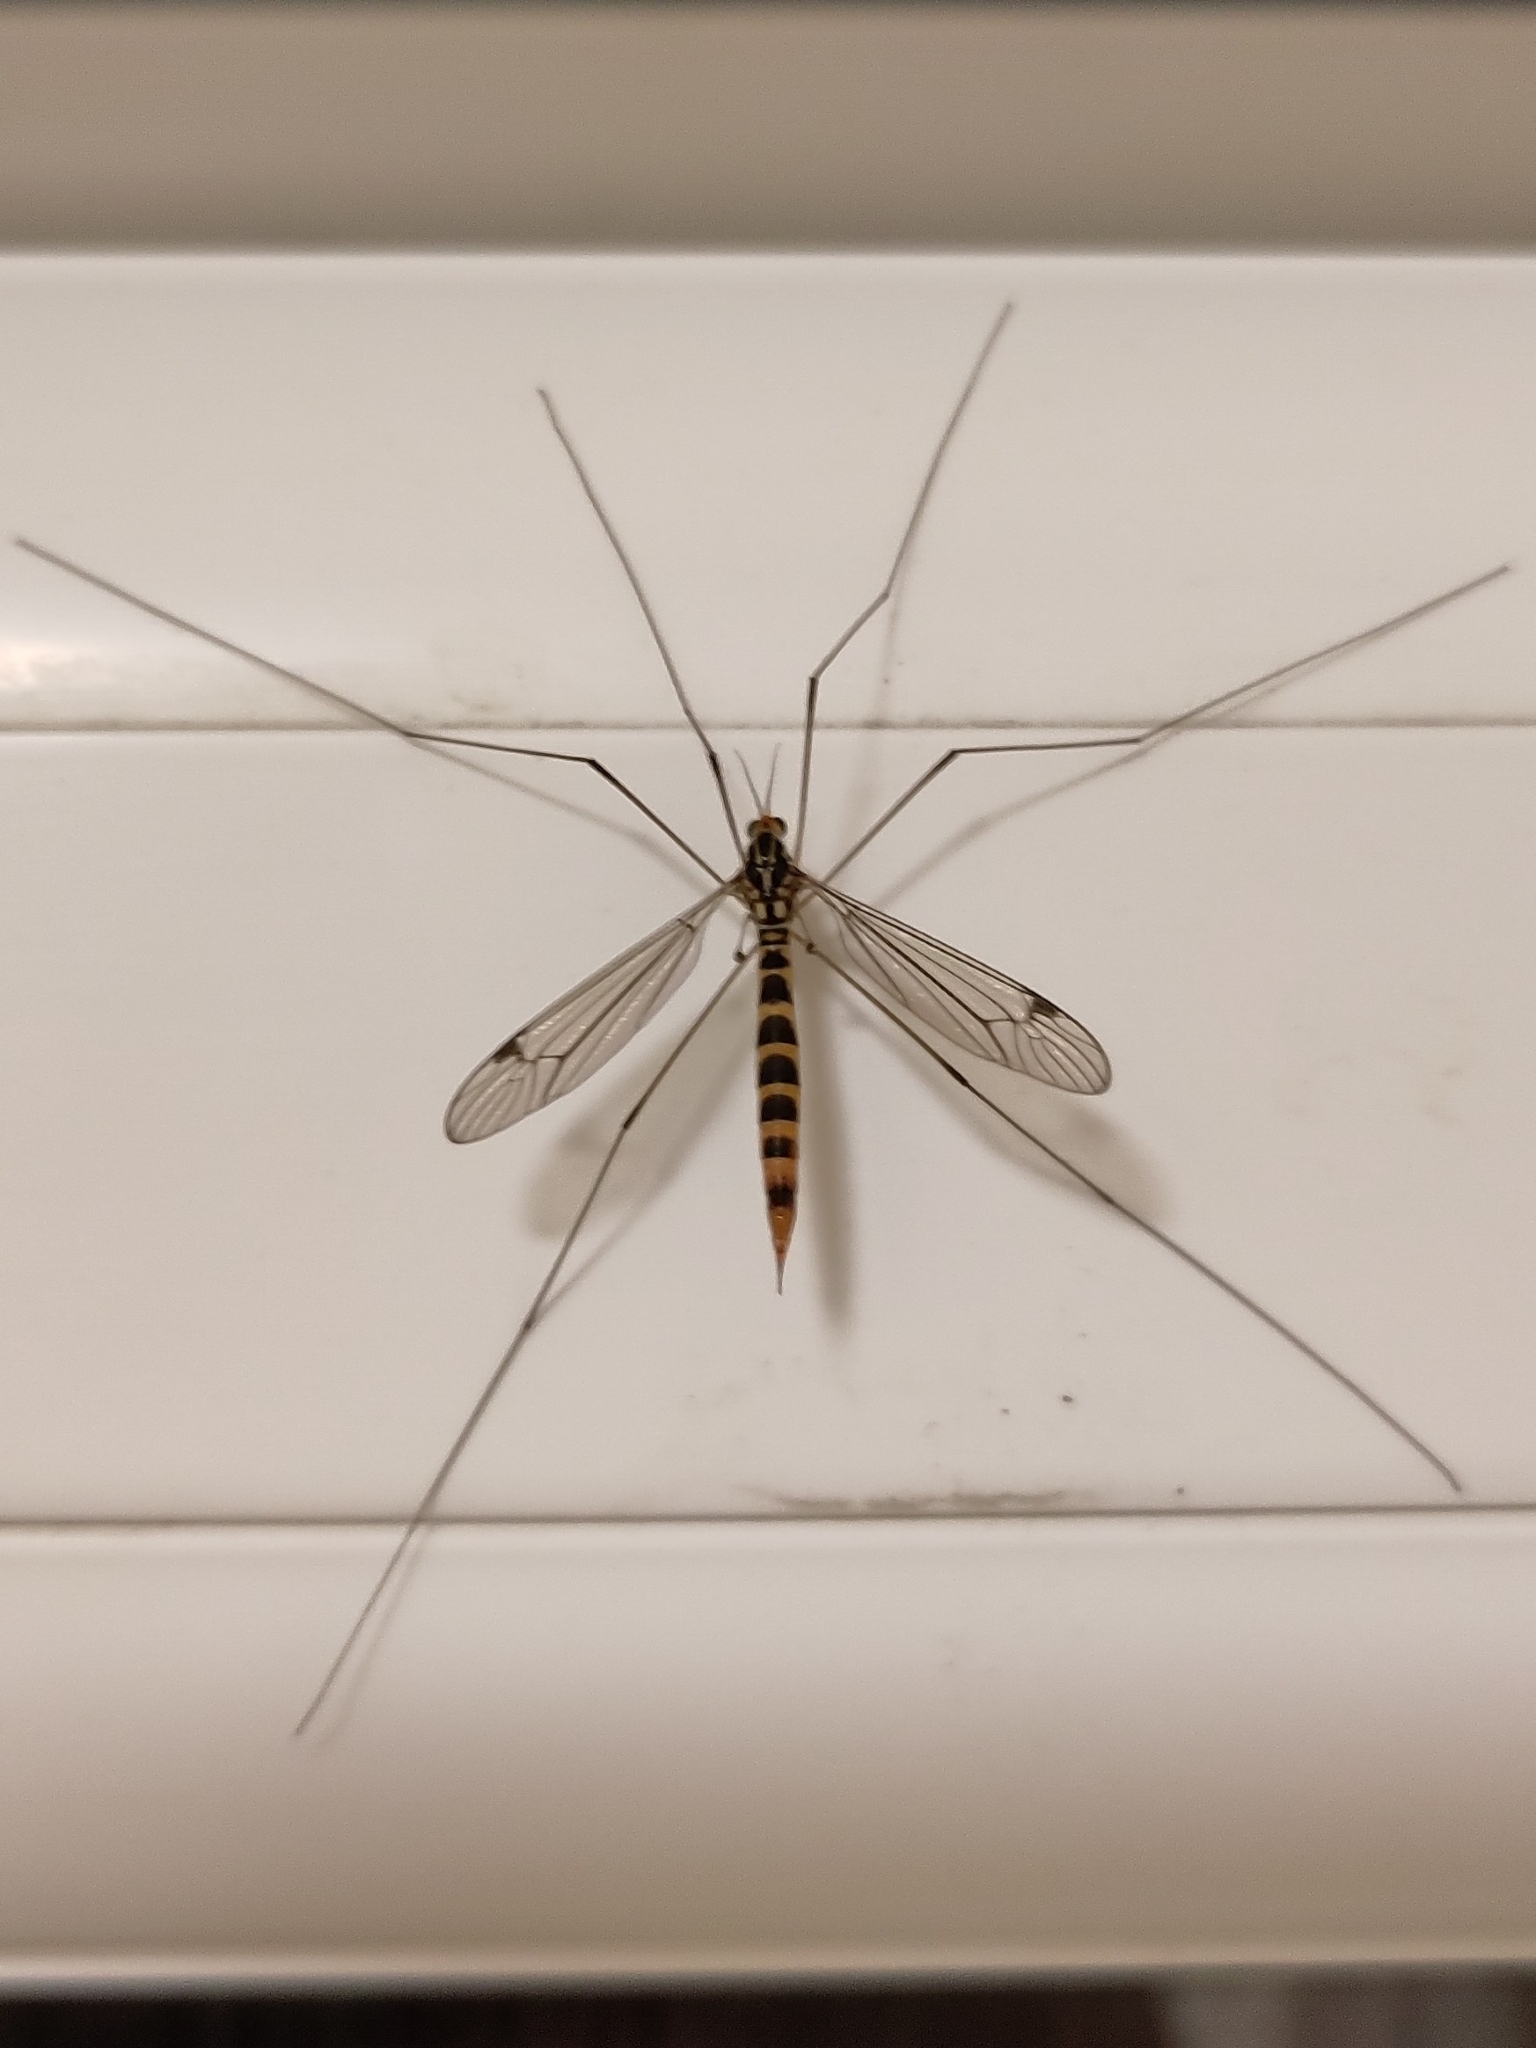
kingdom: Animalia
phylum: Arthropoda
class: Insecta
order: Diptera
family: Tipulidae
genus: Nephrotoma
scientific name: Nephrotoma flavipalpis
